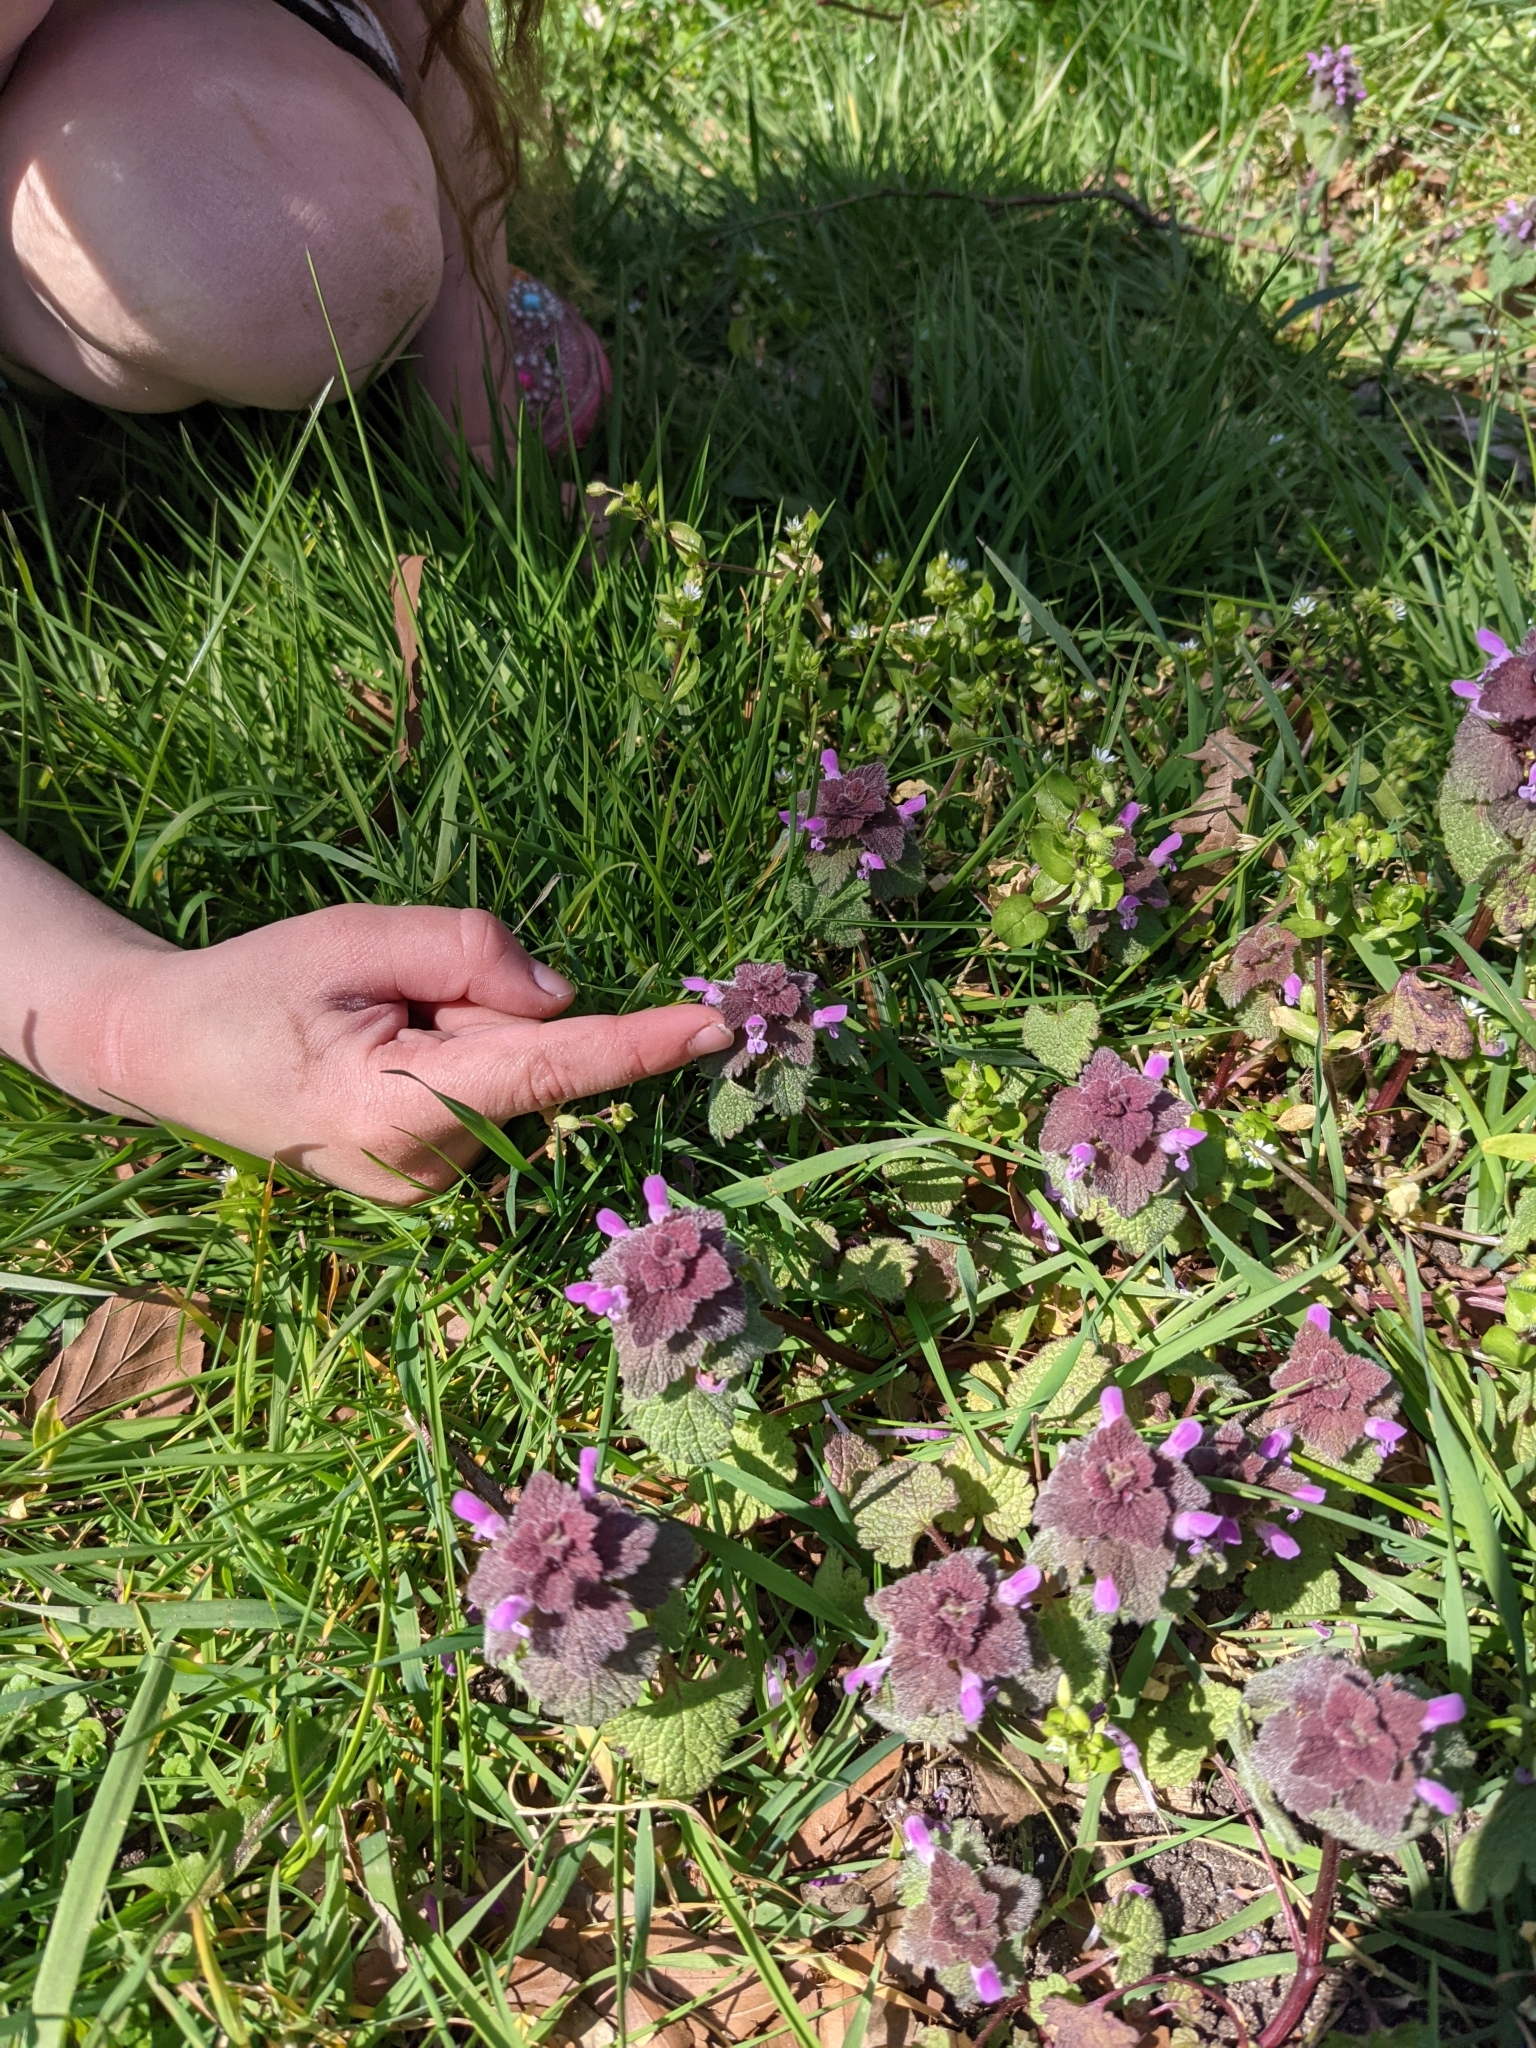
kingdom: Plantae
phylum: Tracheophyta
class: Magnoliopsida
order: Lamiales
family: Lamiaceae
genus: Lamium
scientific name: Lamium purpureum
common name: Red dead-nettle
